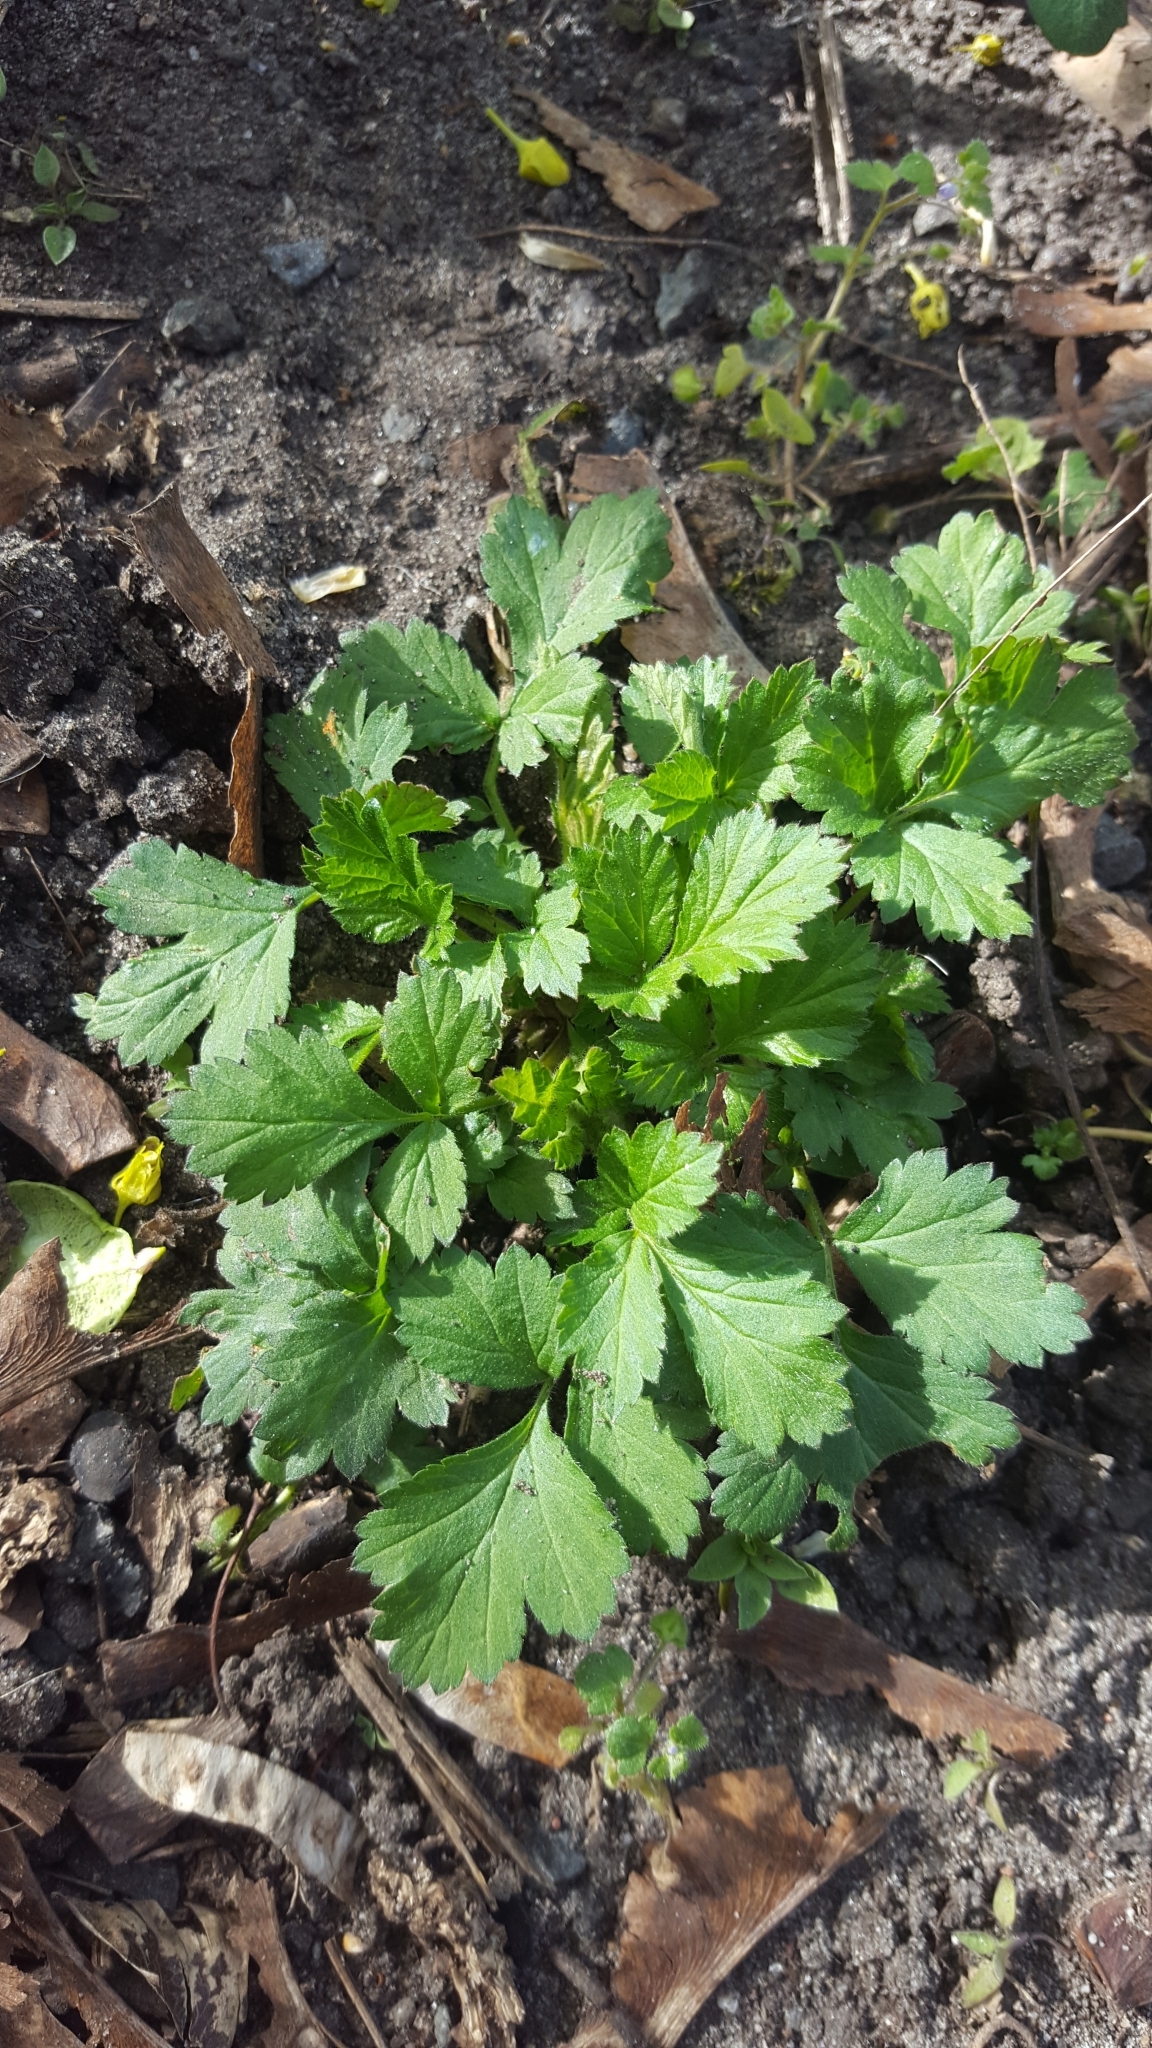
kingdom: Plantae
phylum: Tracheophyta
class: Magnoliopsida
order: Rosales
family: Rosaceae
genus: Geum
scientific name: Geum urbanum
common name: Wood avens
